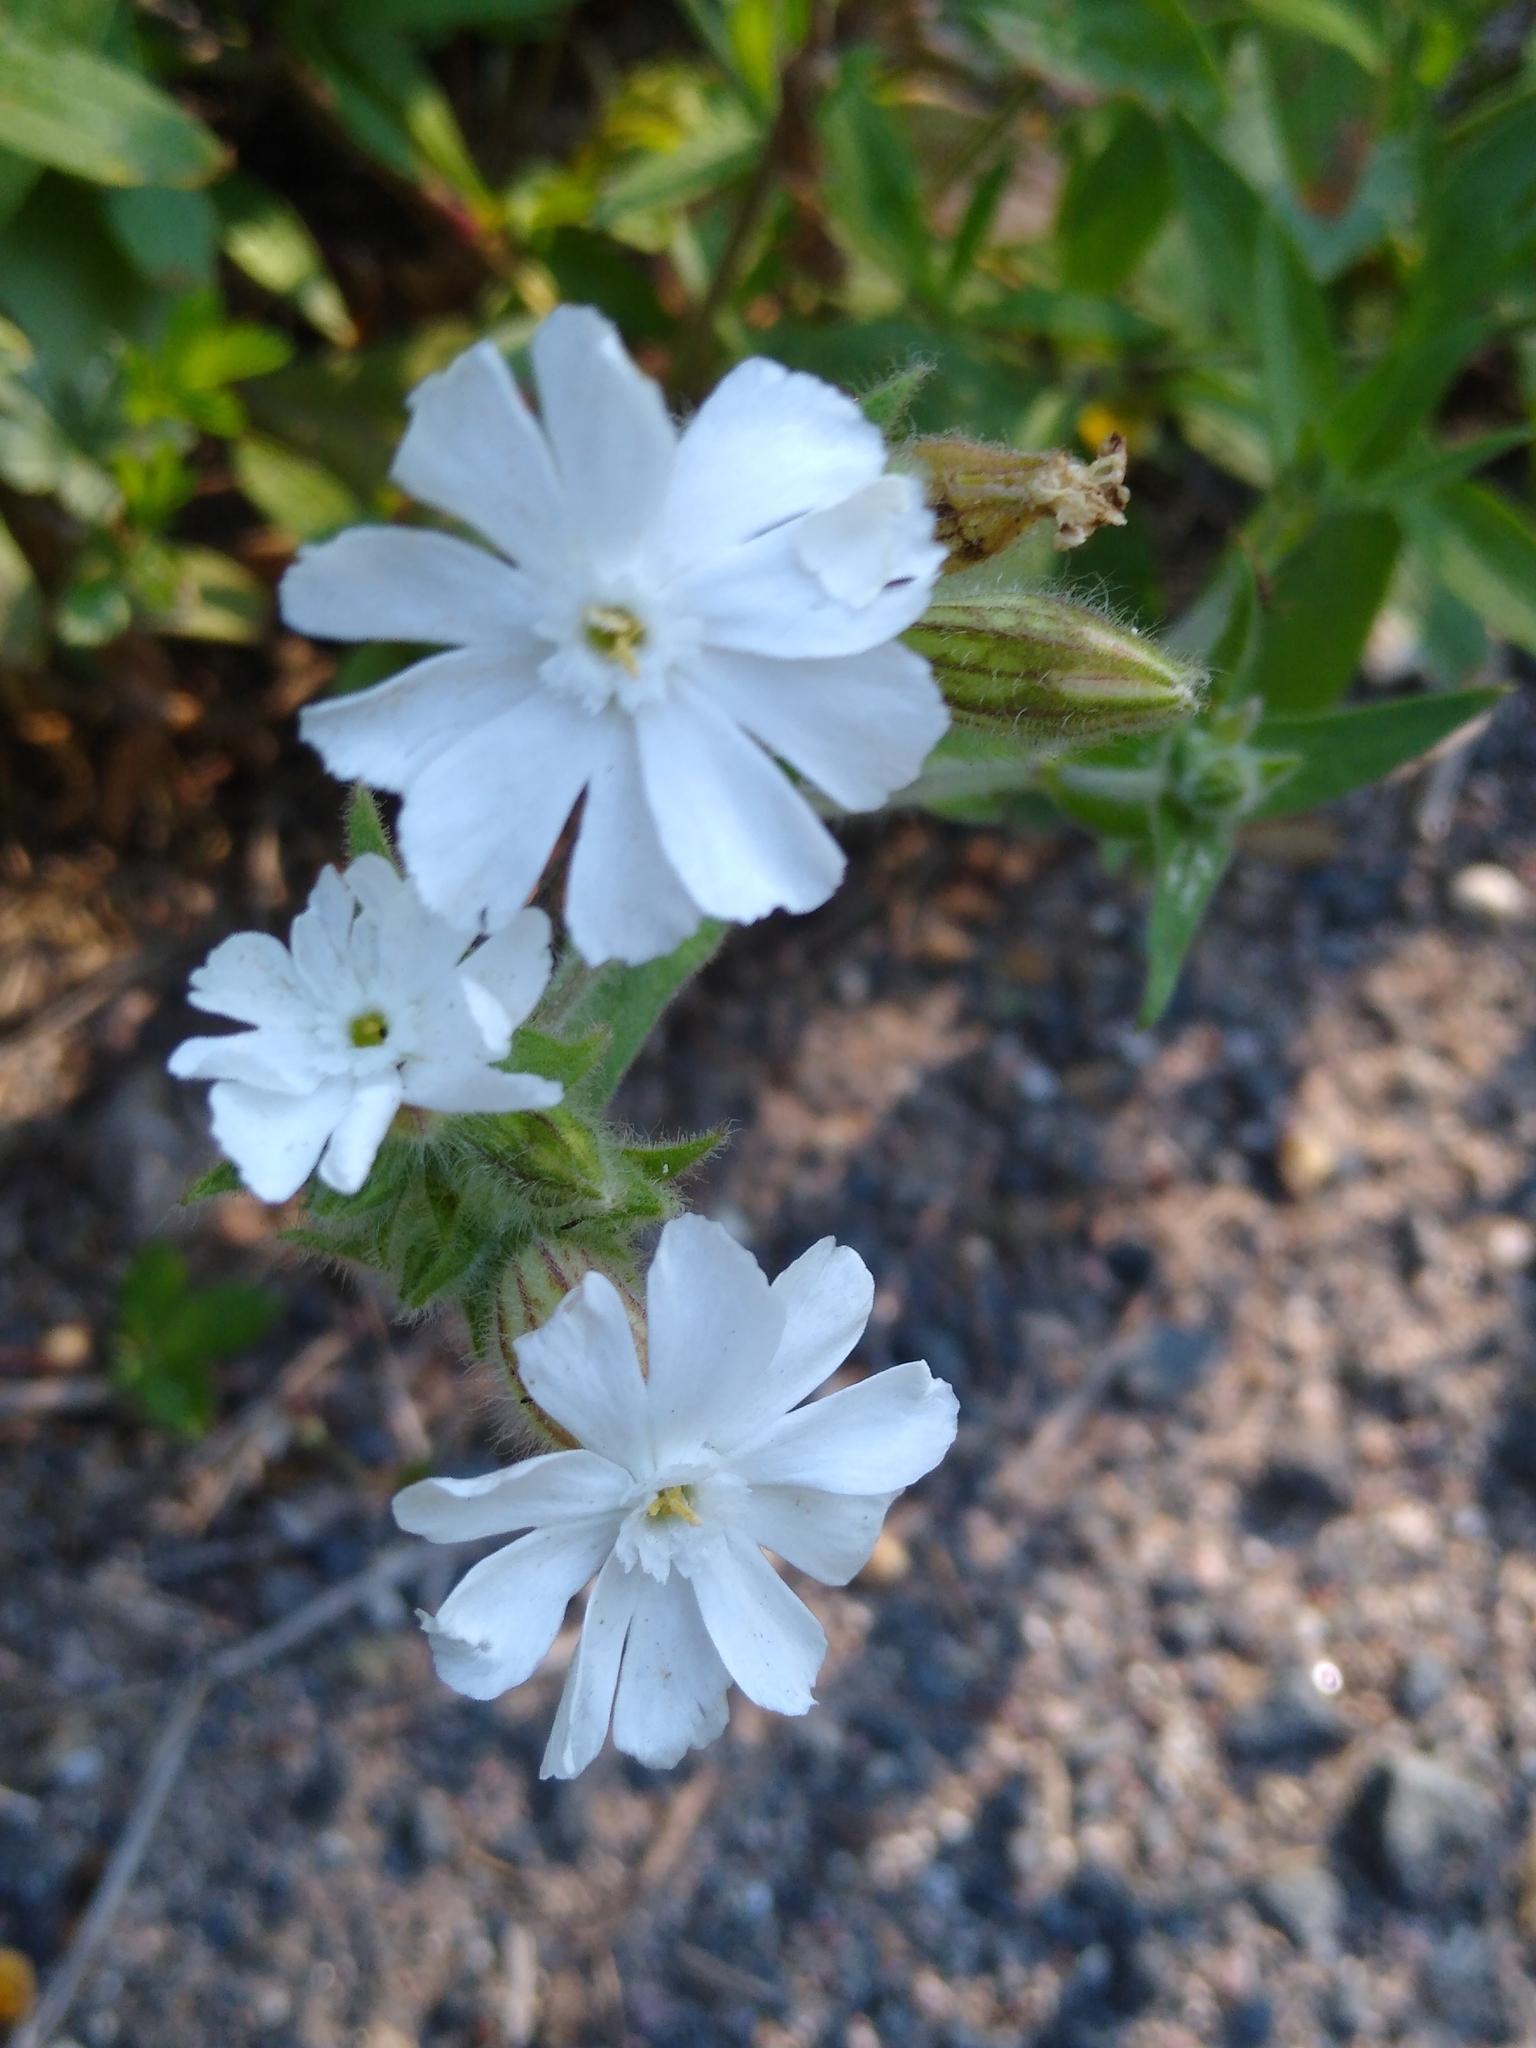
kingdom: Plantae
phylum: Tracheophyta
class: Magnoliopsida
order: Caryophyllales
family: Caryophyllaceae
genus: Silene
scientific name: Silene latifolia
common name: White campion
